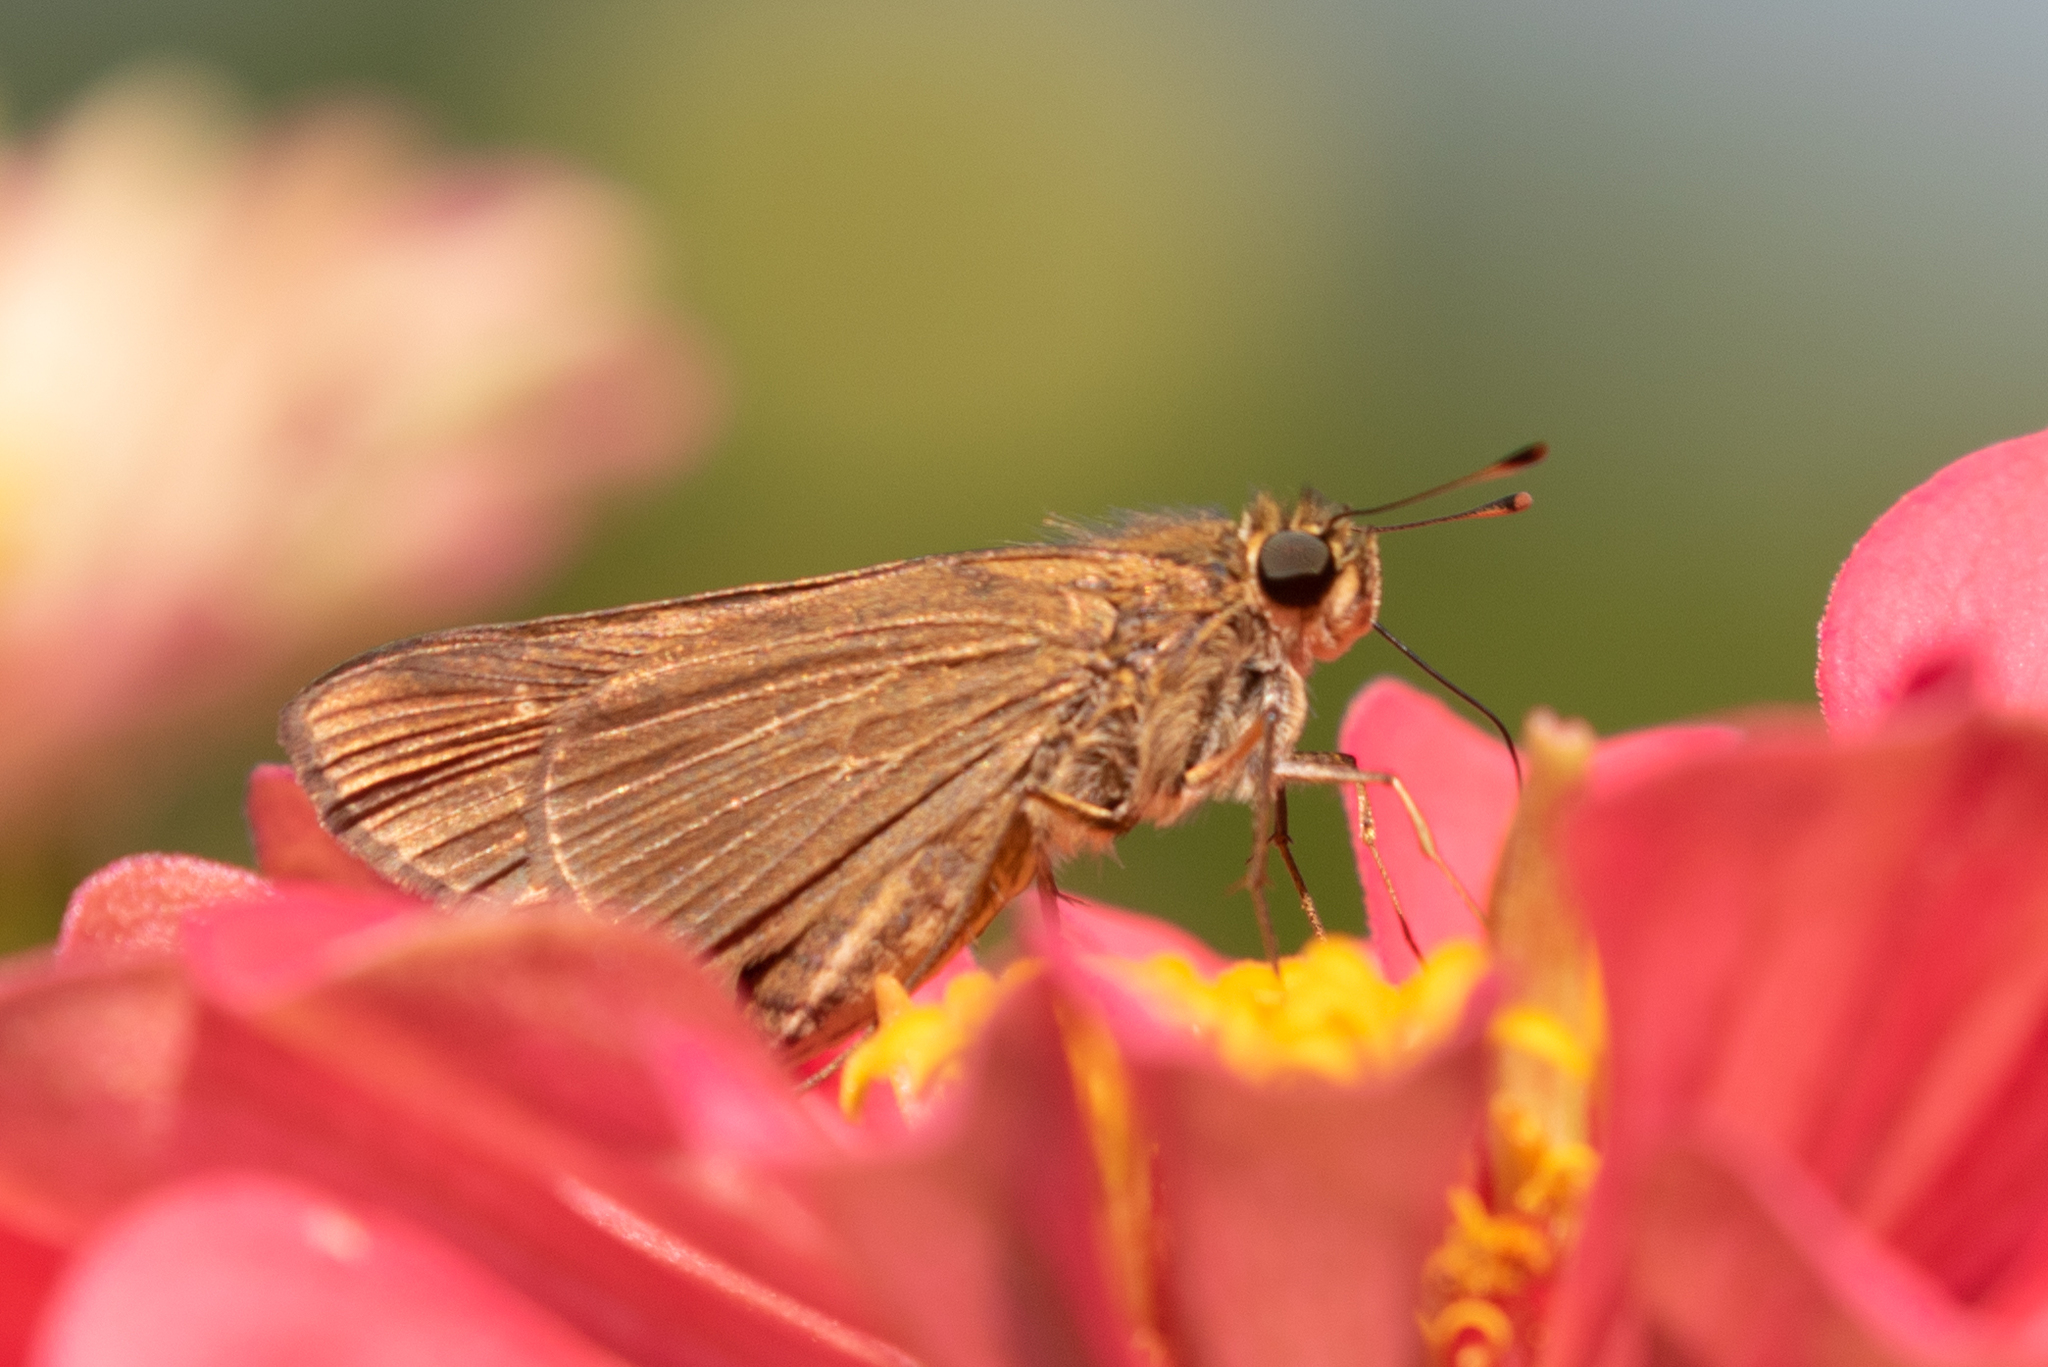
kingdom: Animalia
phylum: Arthropoda
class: Insecta
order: Lepidoptera
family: Hesperiidae
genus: Panoquina
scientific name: Panoquina ocola
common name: Ocola skipper
